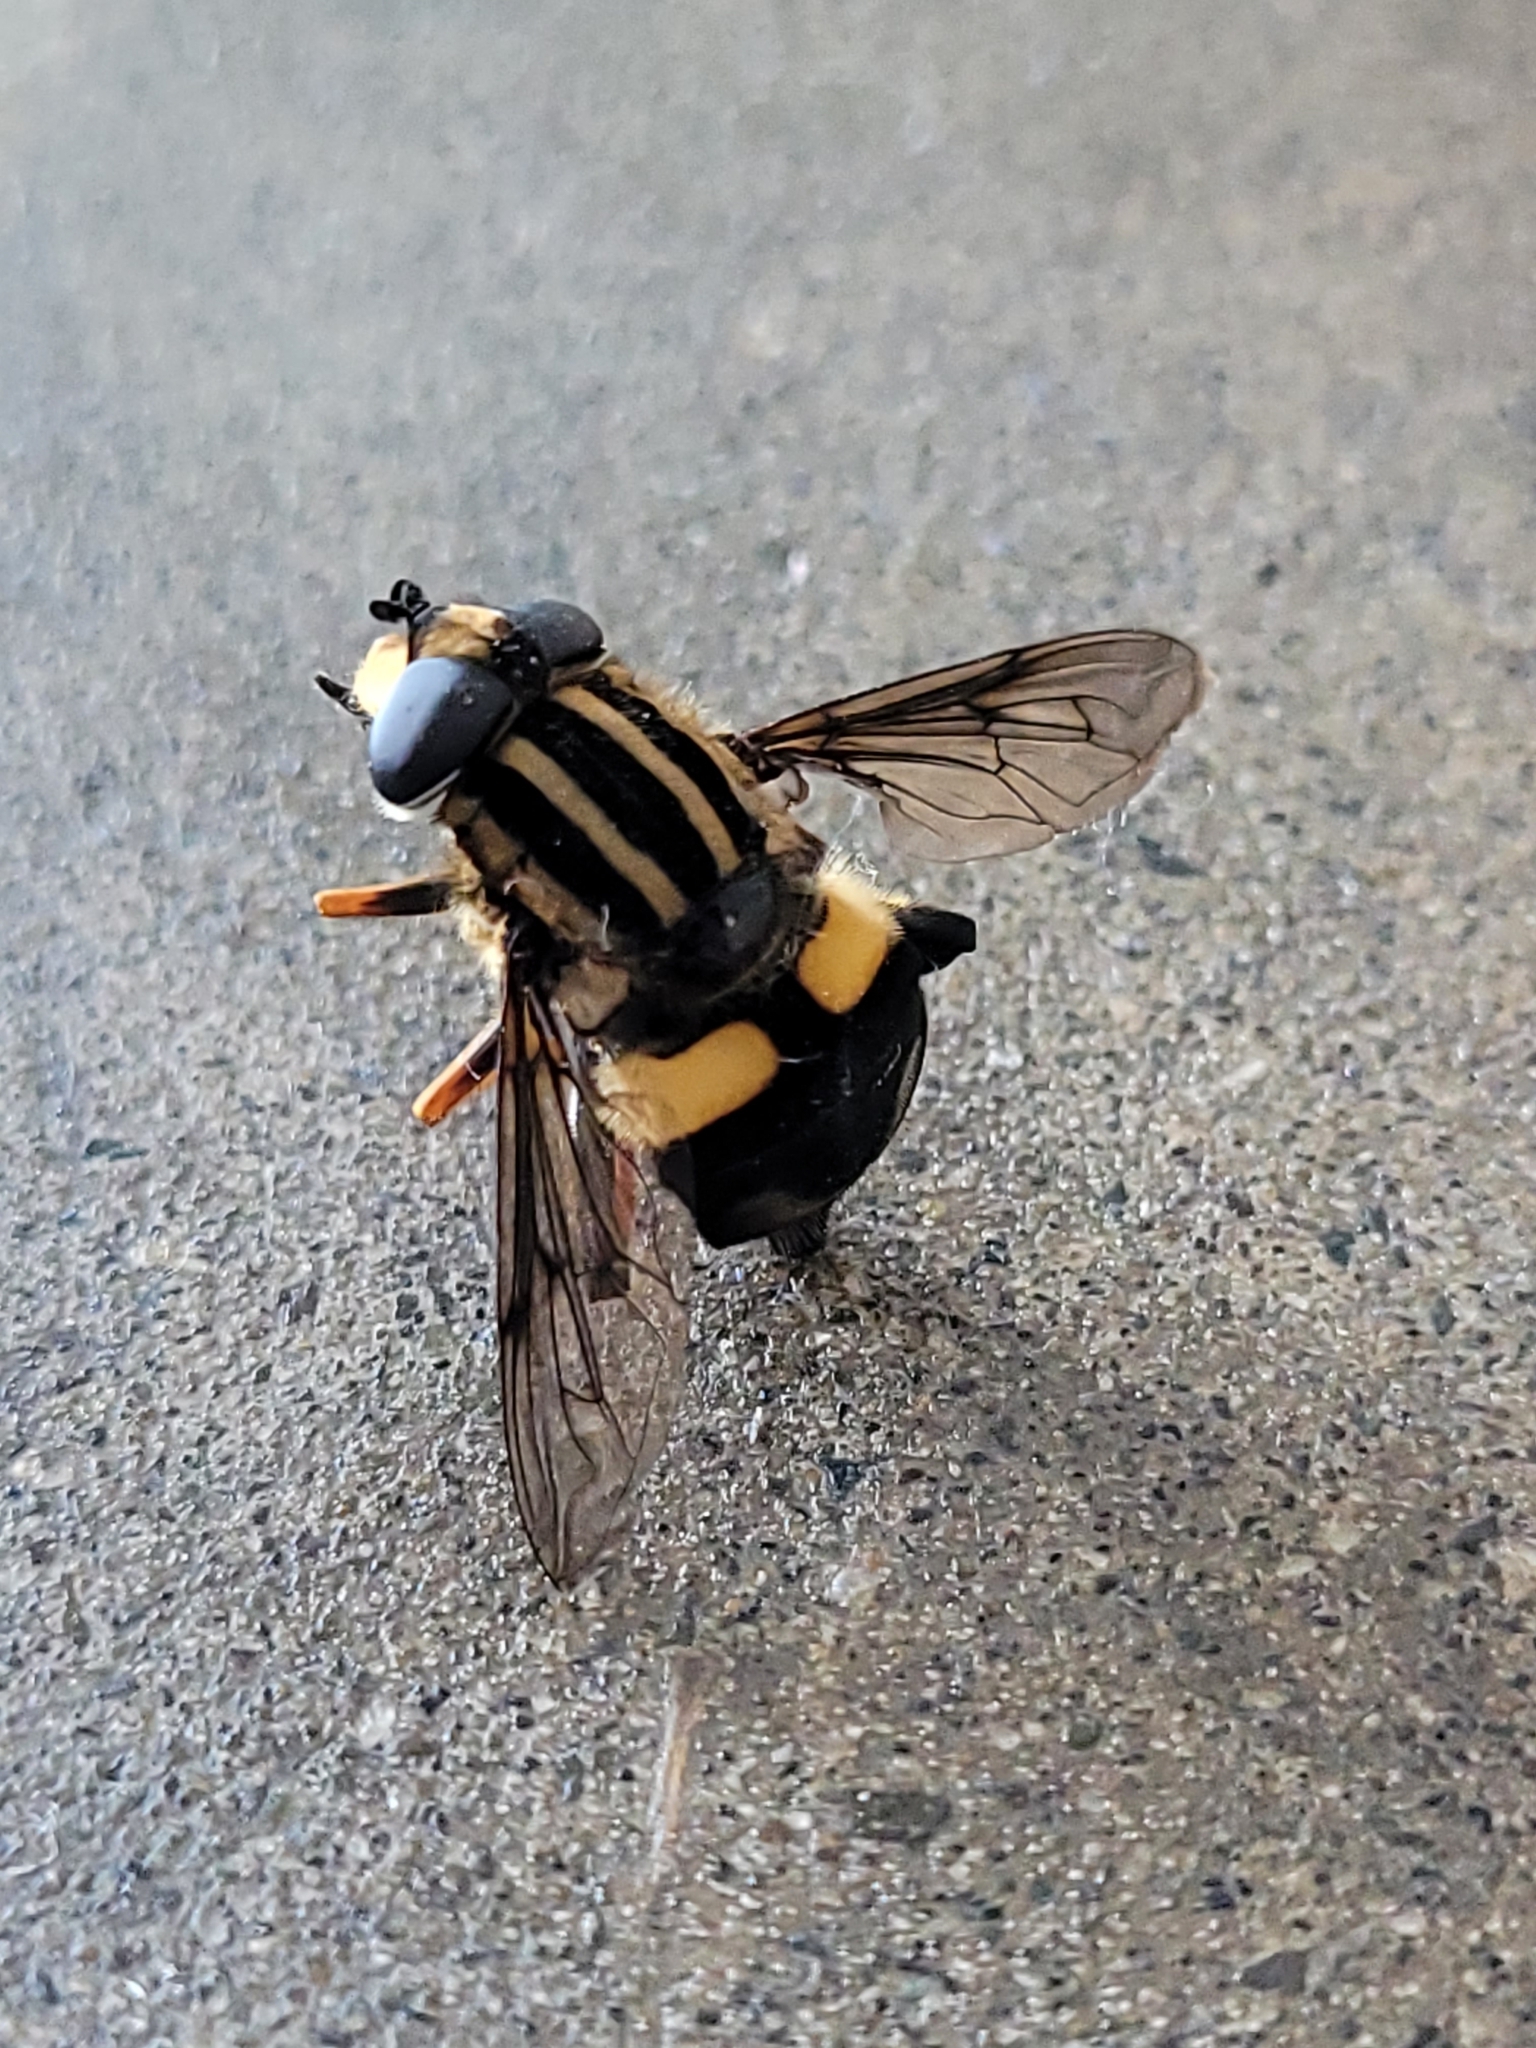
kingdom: Animalia
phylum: Arthropoda
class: Insecta
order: Diptera
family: Syrphidae
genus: Helophilus
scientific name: Helophilus seelandicus
